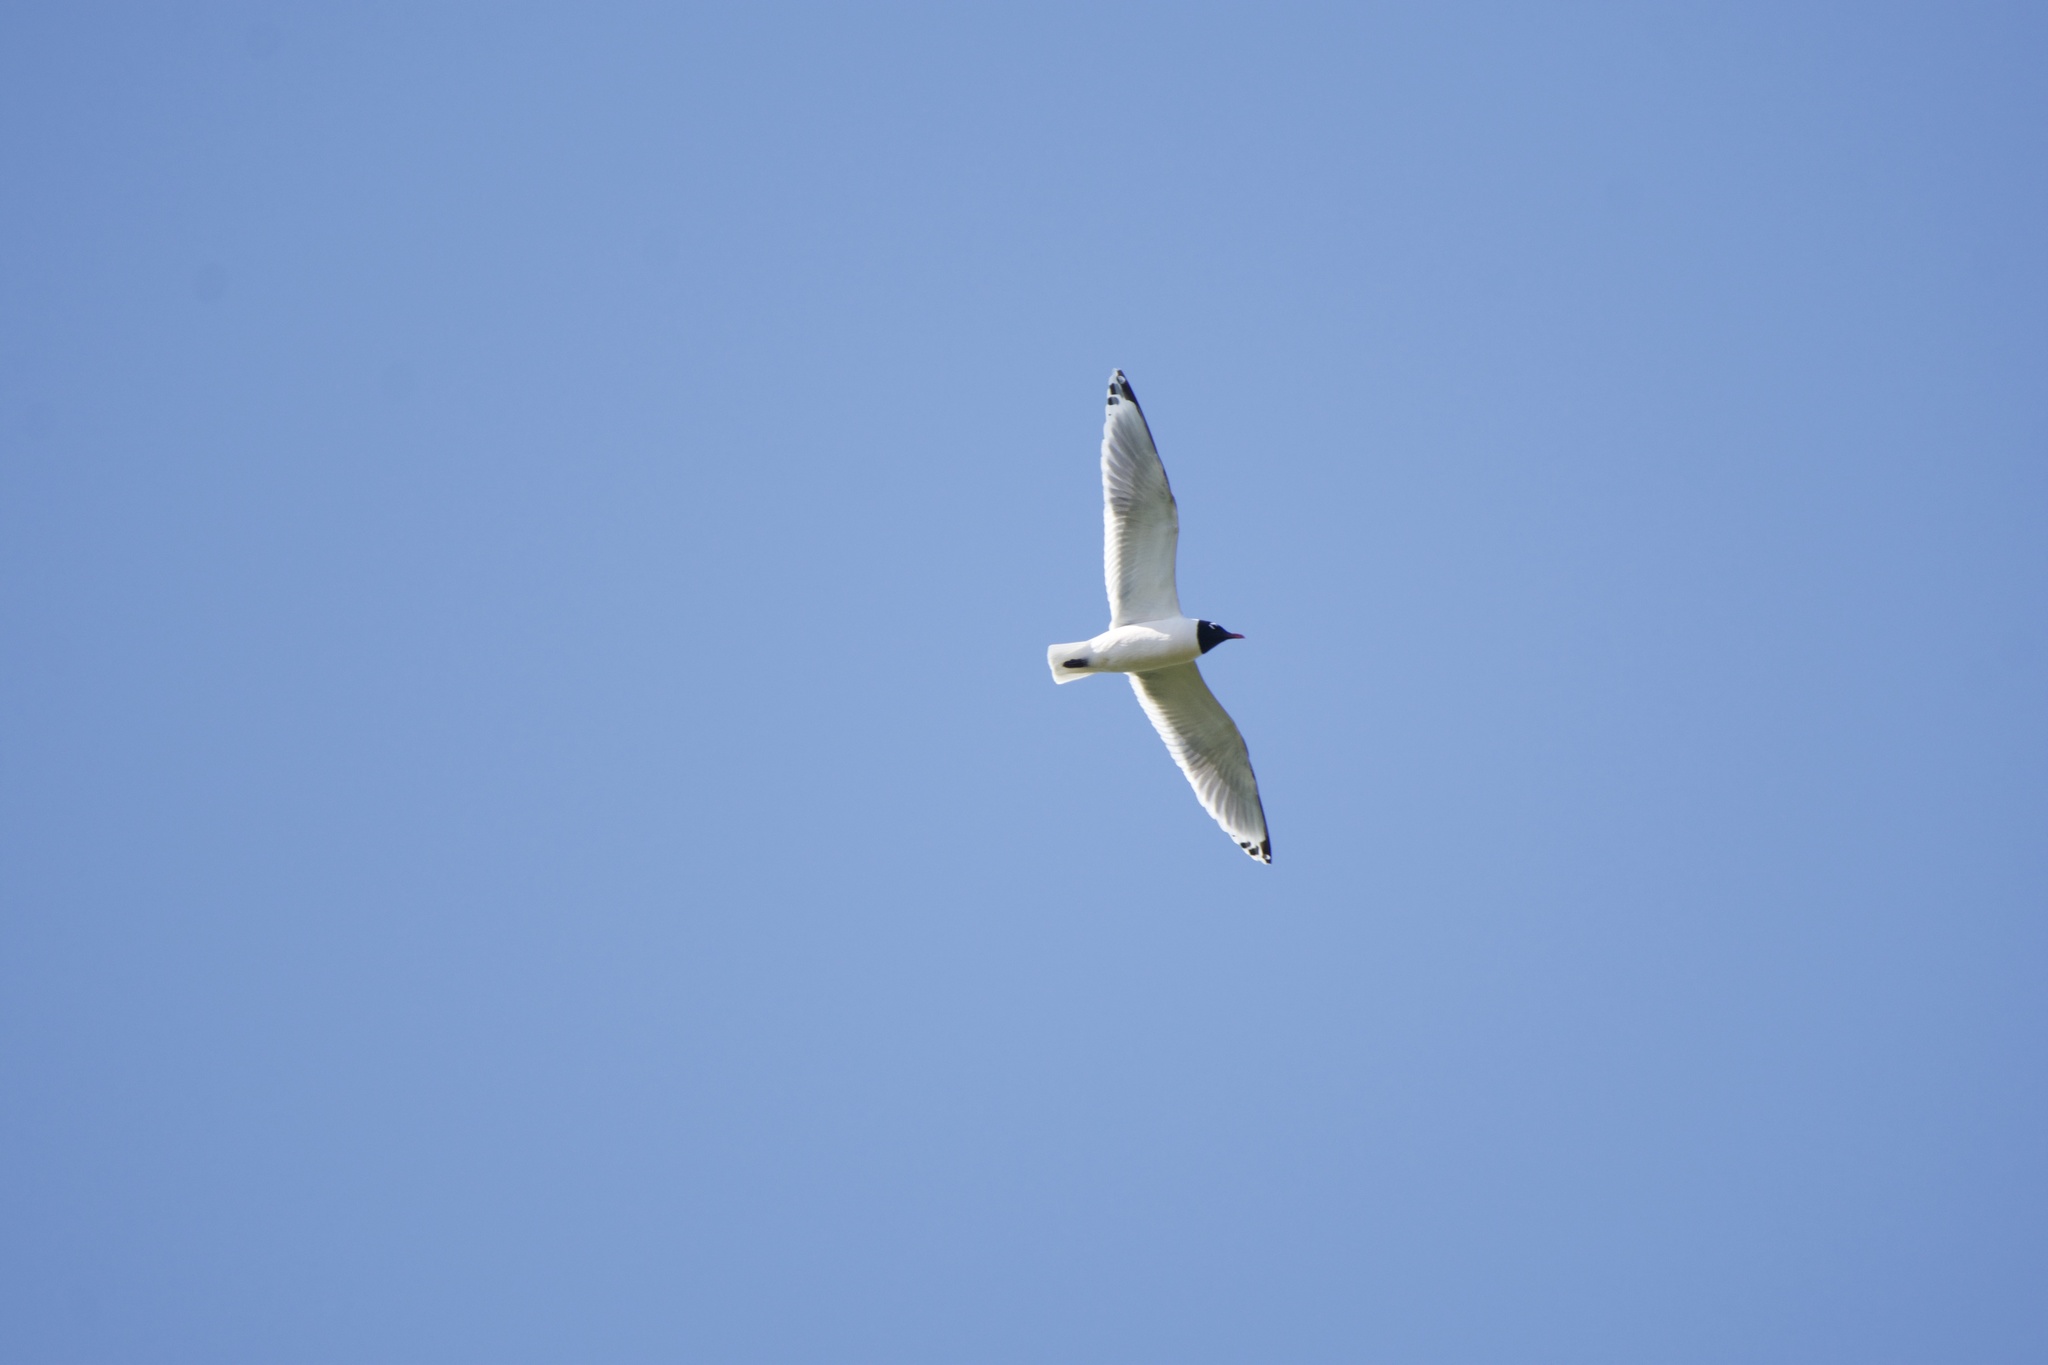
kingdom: Animalia
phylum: Chordata
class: Aves
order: Charadriiformes
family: Laridae
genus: Leucophaeus
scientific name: Leucophaeus pipixcan
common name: Franklin's gull
